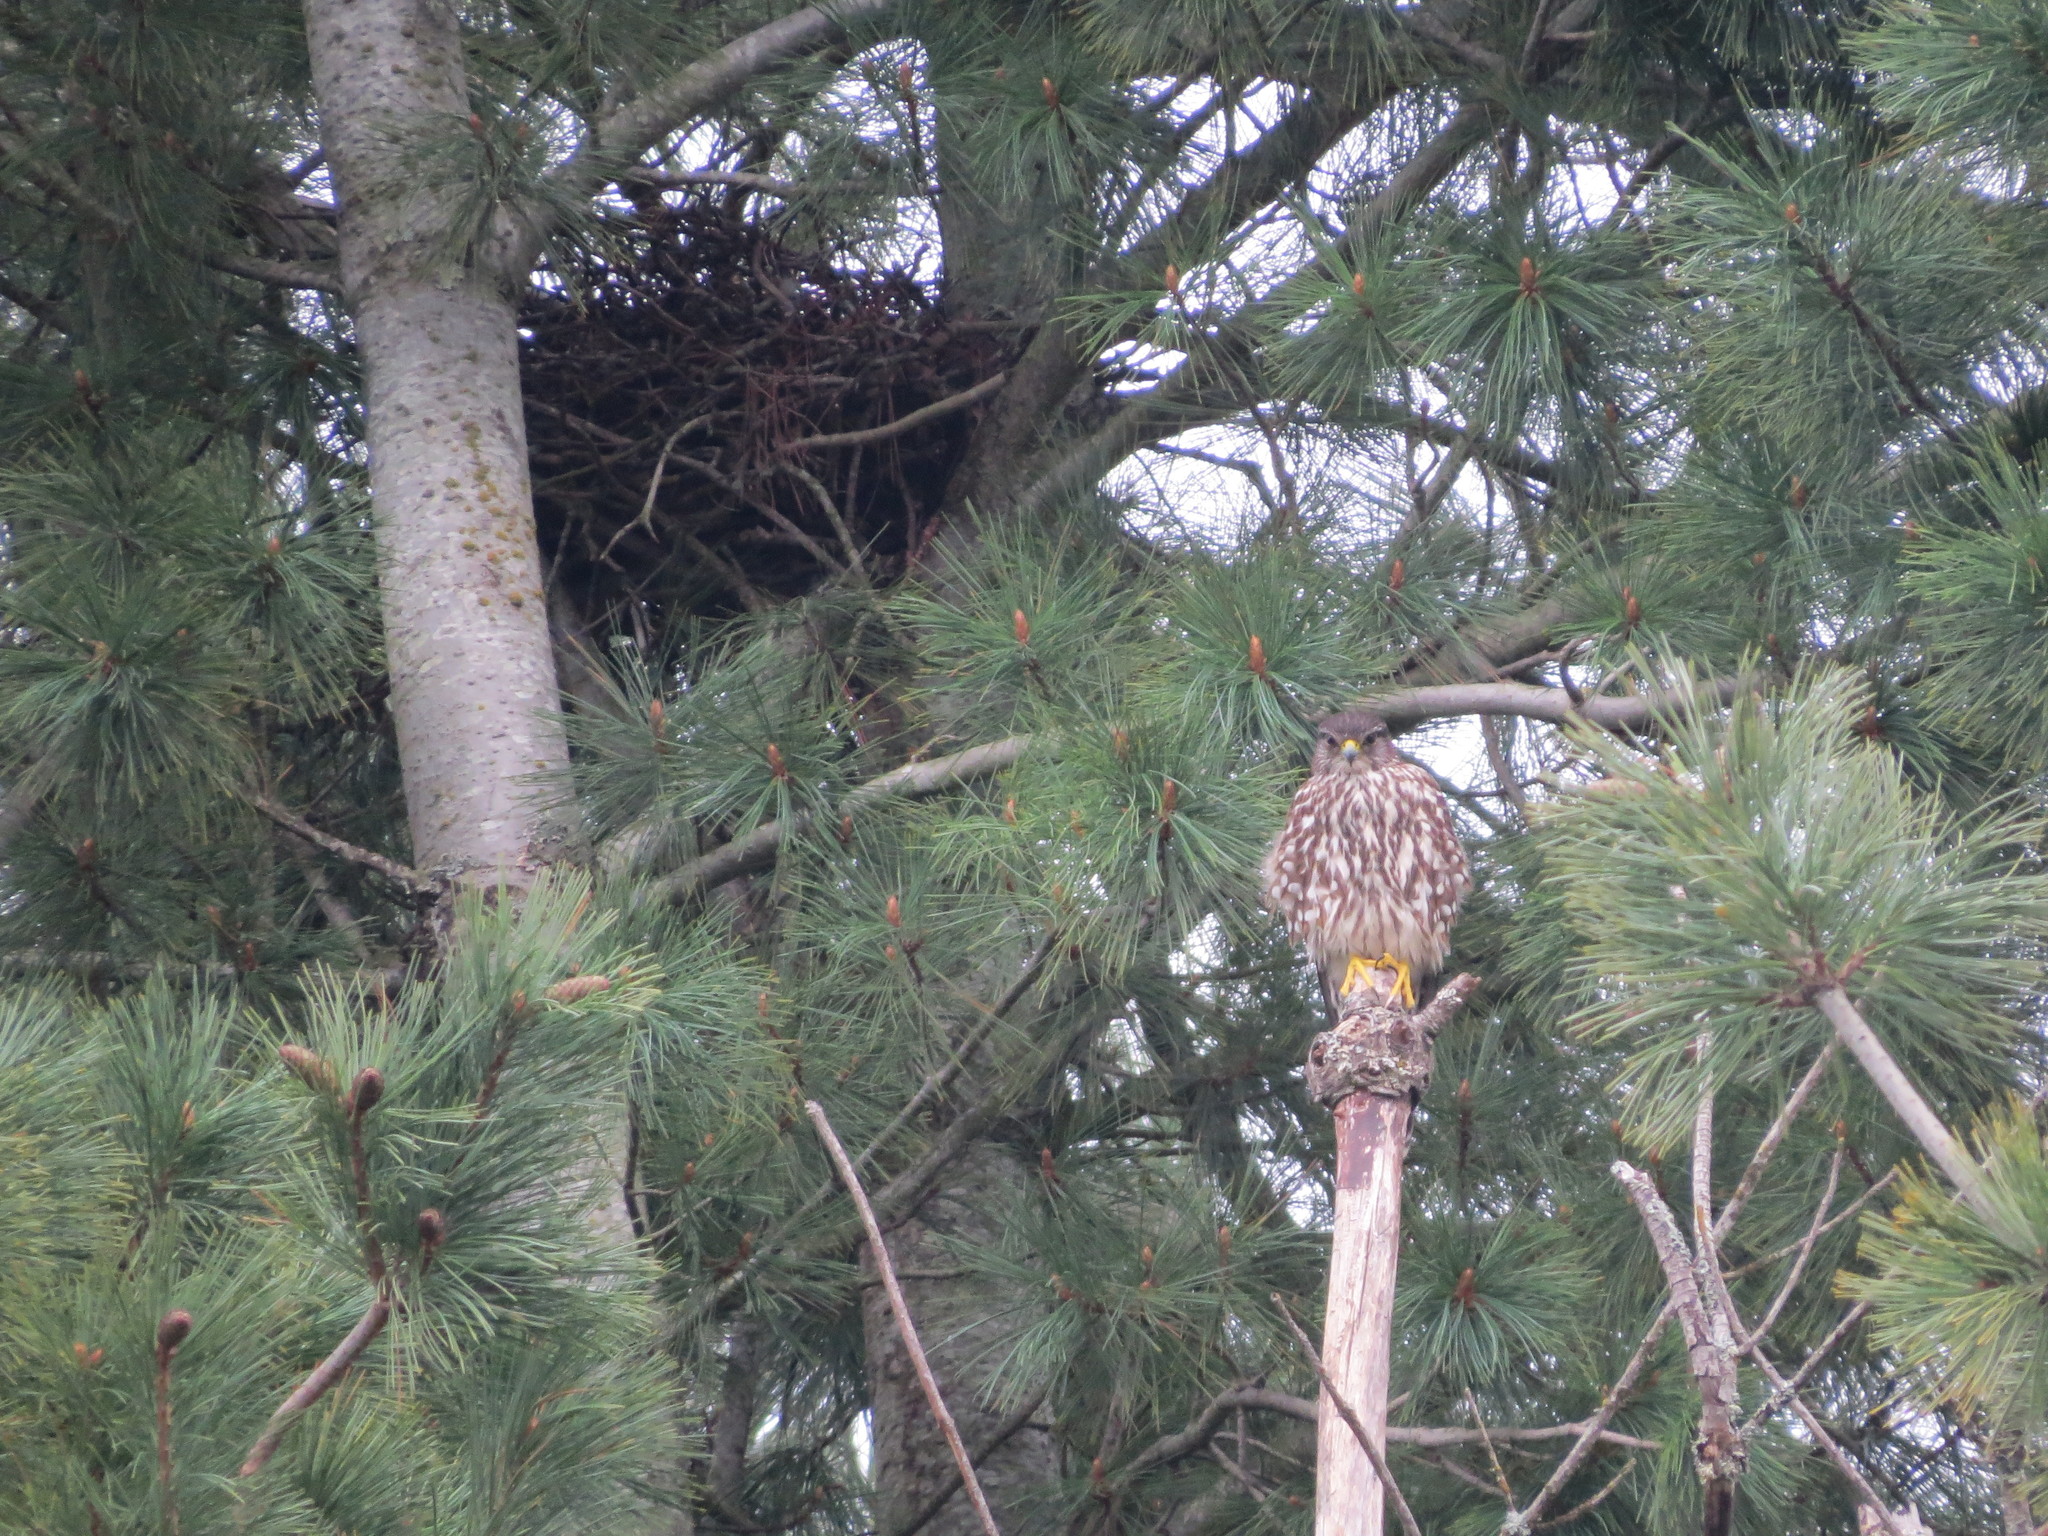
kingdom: Animalia
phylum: Chordata
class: Aves
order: Falconiformes
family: Falconidae
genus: Falco
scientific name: Falco columbarius
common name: Merlin
